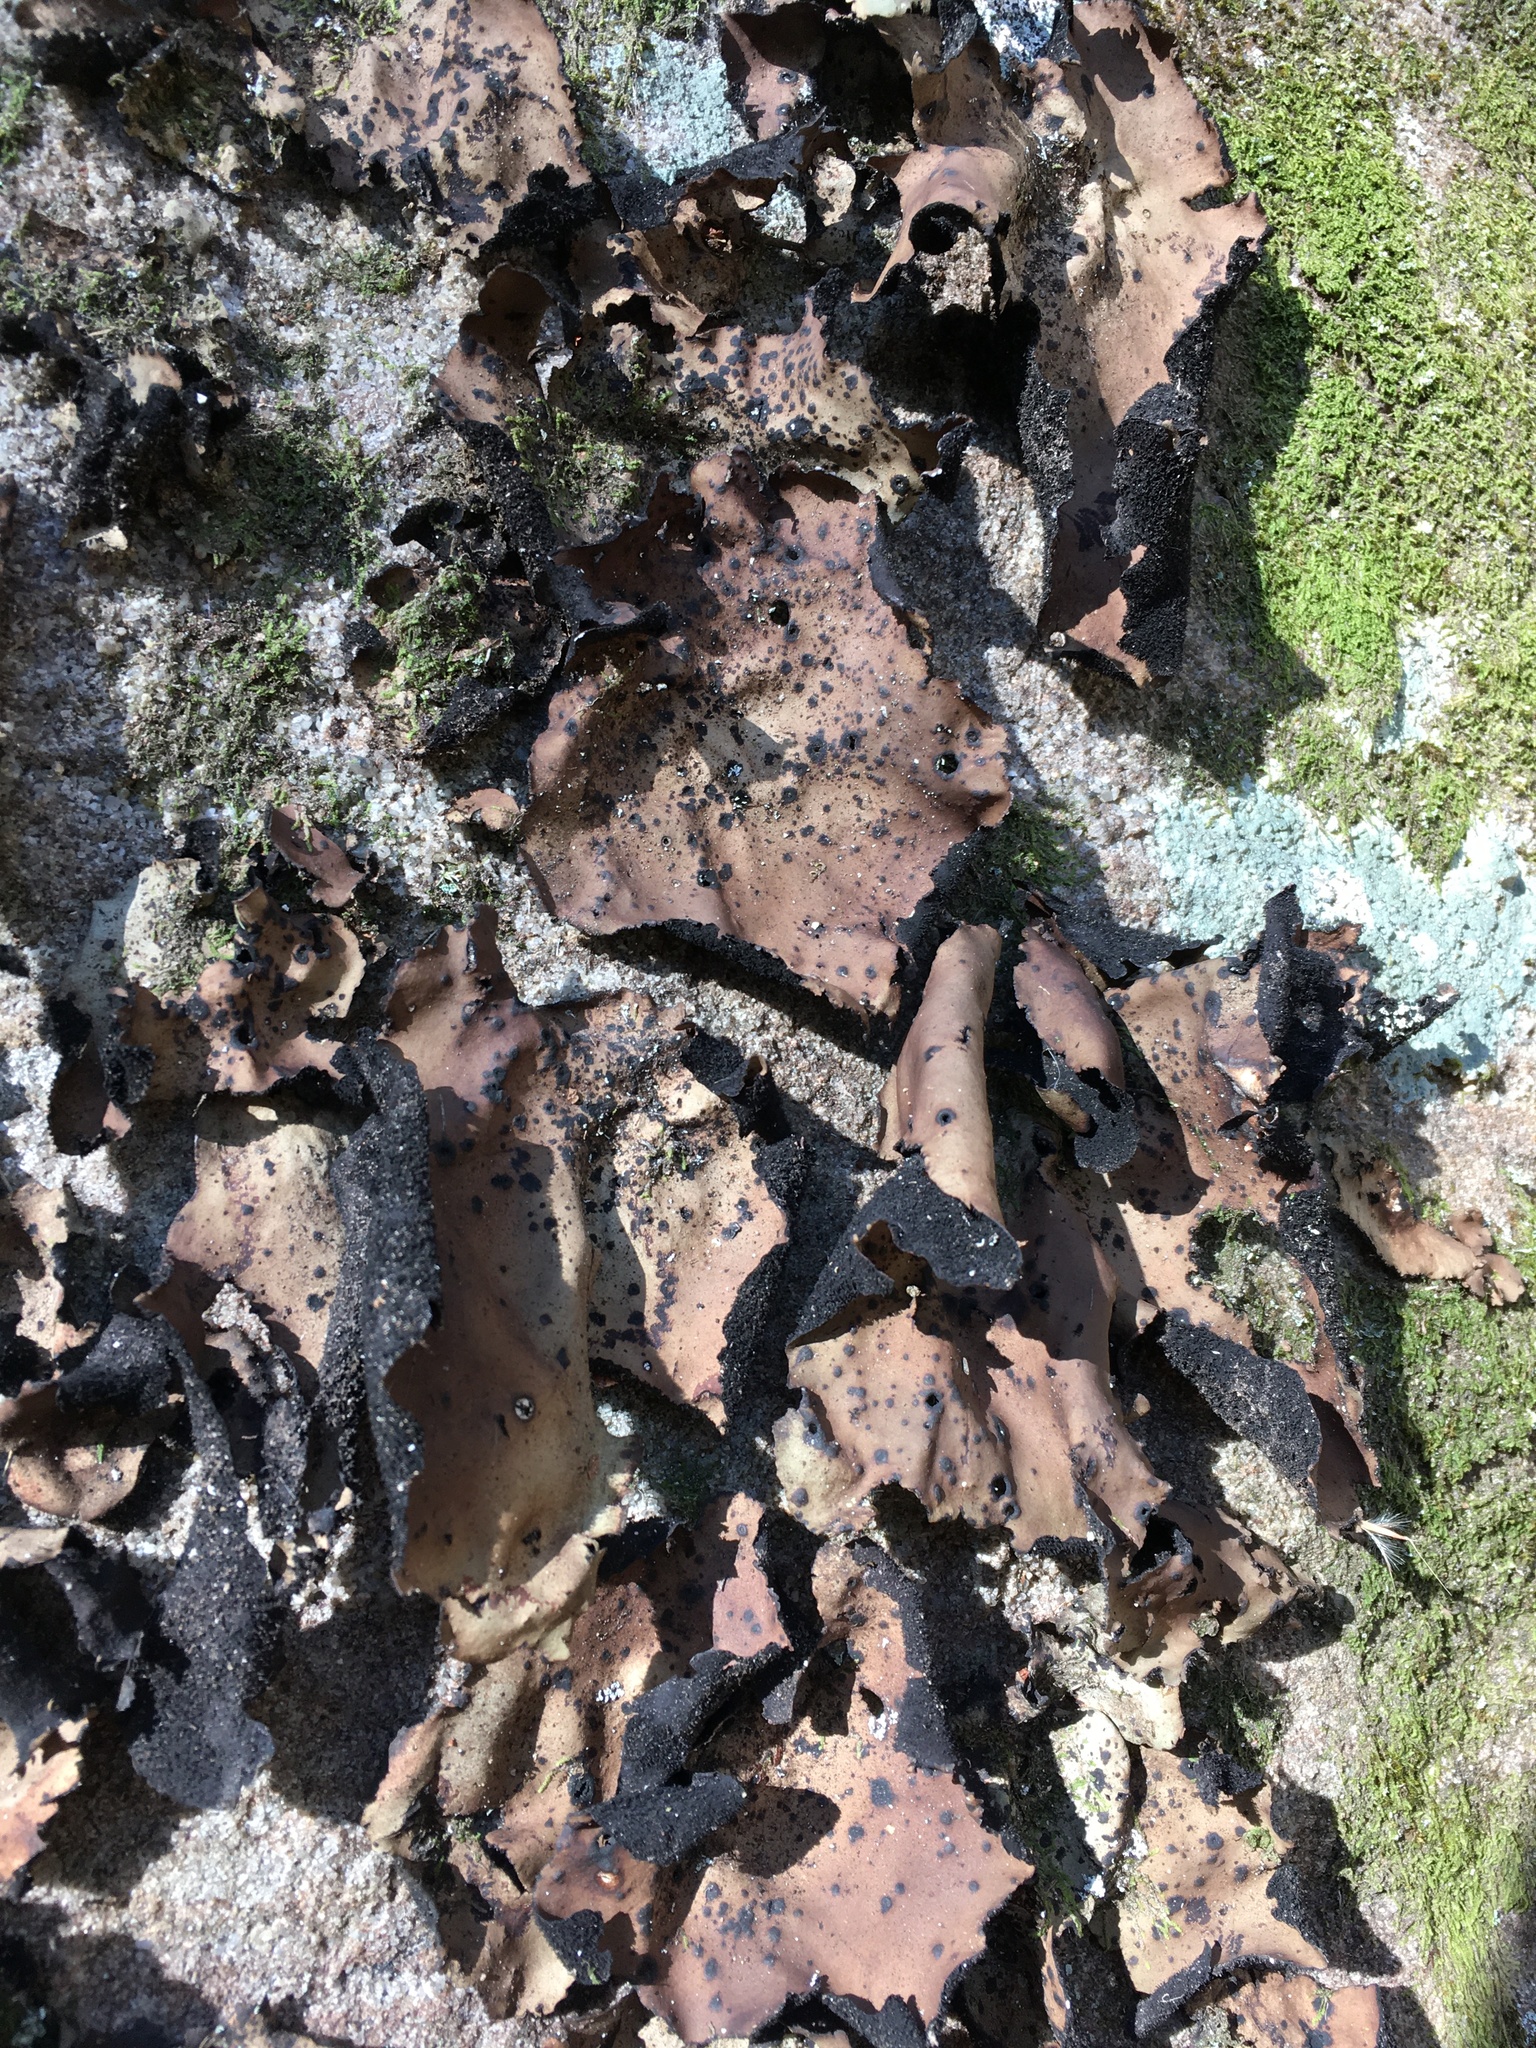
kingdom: Fungi
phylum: Ascomycota
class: Lecanoromycetes
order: Umbilicariales
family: Umbilicariaceae
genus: Umbilicaria
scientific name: Umbilicaria mammulata
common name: Smooth rock tripe
